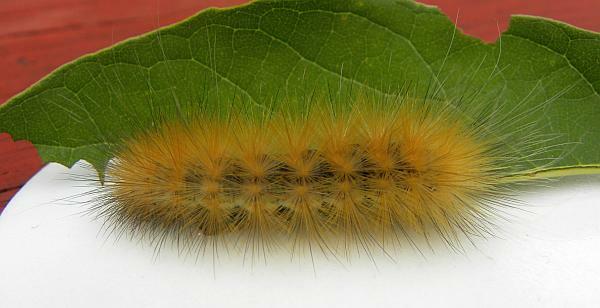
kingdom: Animalia
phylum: Arthropoda
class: Insecta
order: Lepidoptera
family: Erebidae
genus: Spilosoma
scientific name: Spilosoma virginica
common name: Virginia tiger moth
